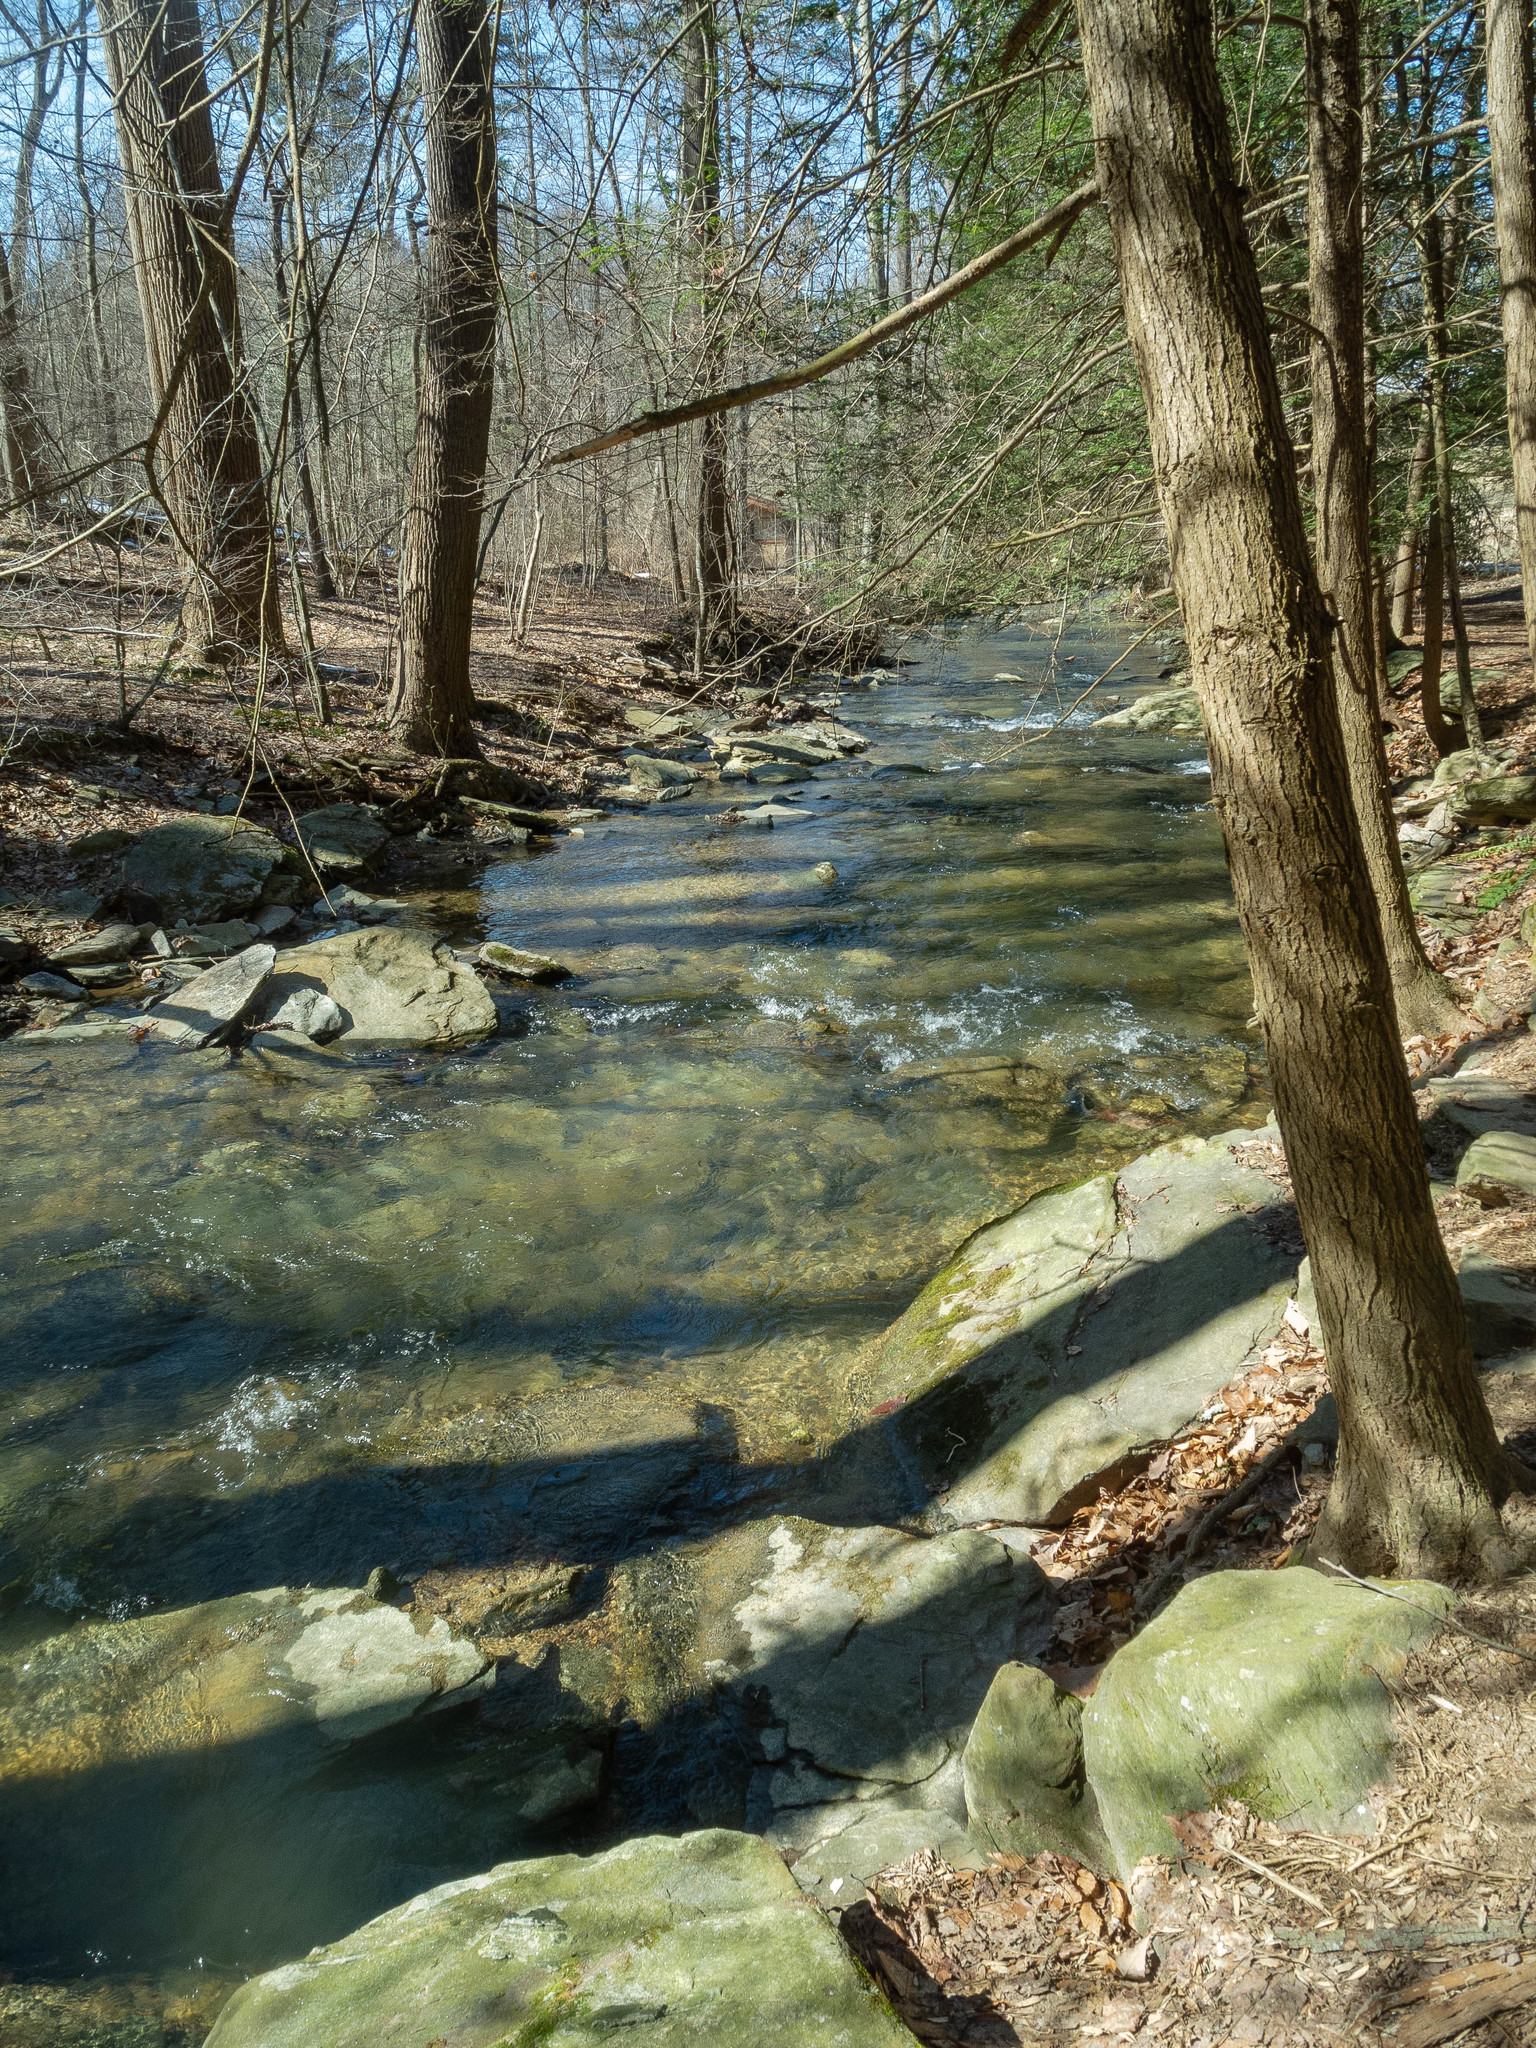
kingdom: Plantae
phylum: Tracheophyta
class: Pinopsida
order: Pinales
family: Pinaceae
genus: Tsuga
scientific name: Tsuga canadensis
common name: Eastern hemlock
